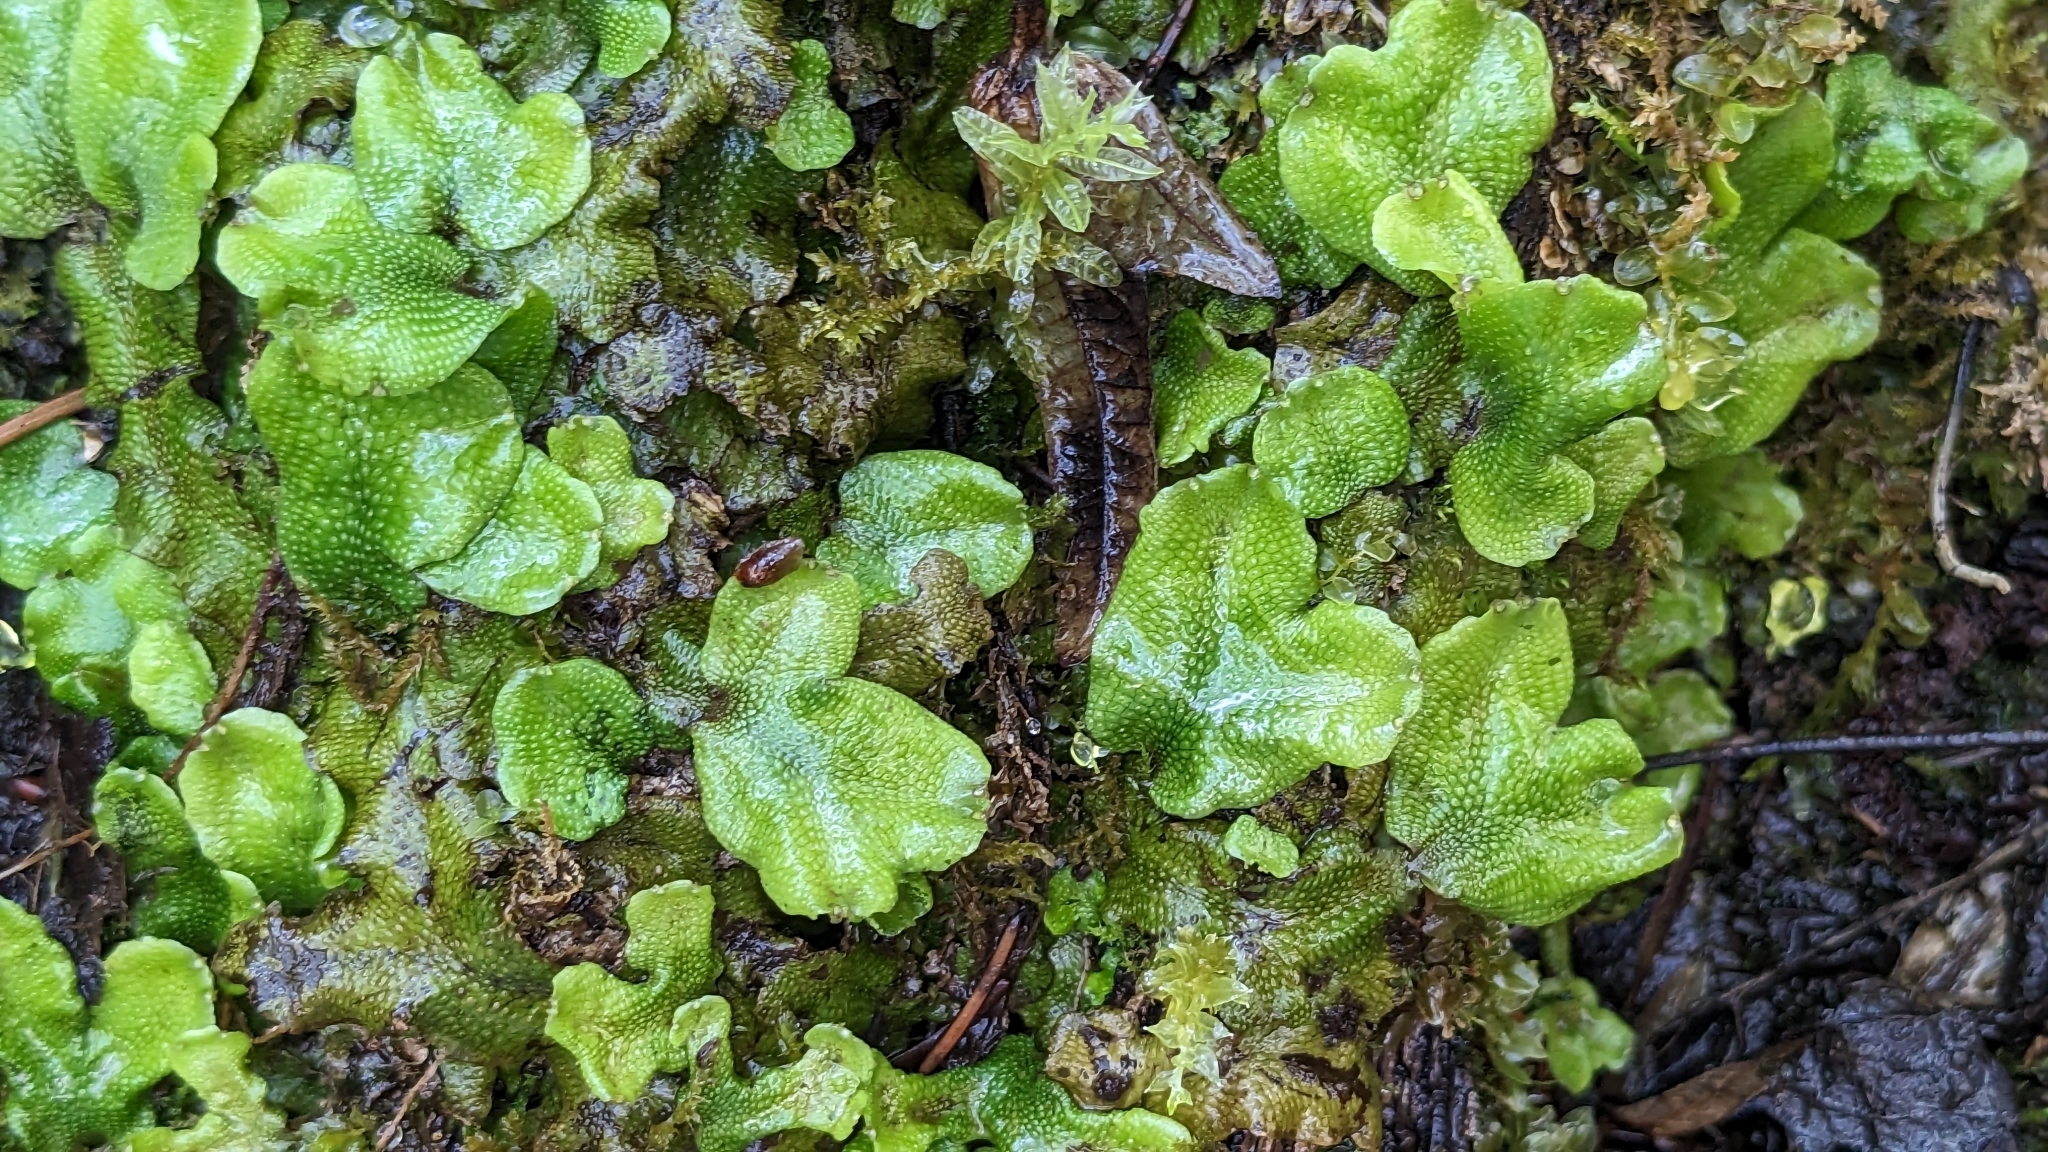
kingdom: Plantae
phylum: Marchantiophyta
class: Marchantiopsida
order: Marchantiales
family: Conocephalaceae
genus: Conocephalum
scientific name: Conocephalum conicum
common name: Great scented liverwort
